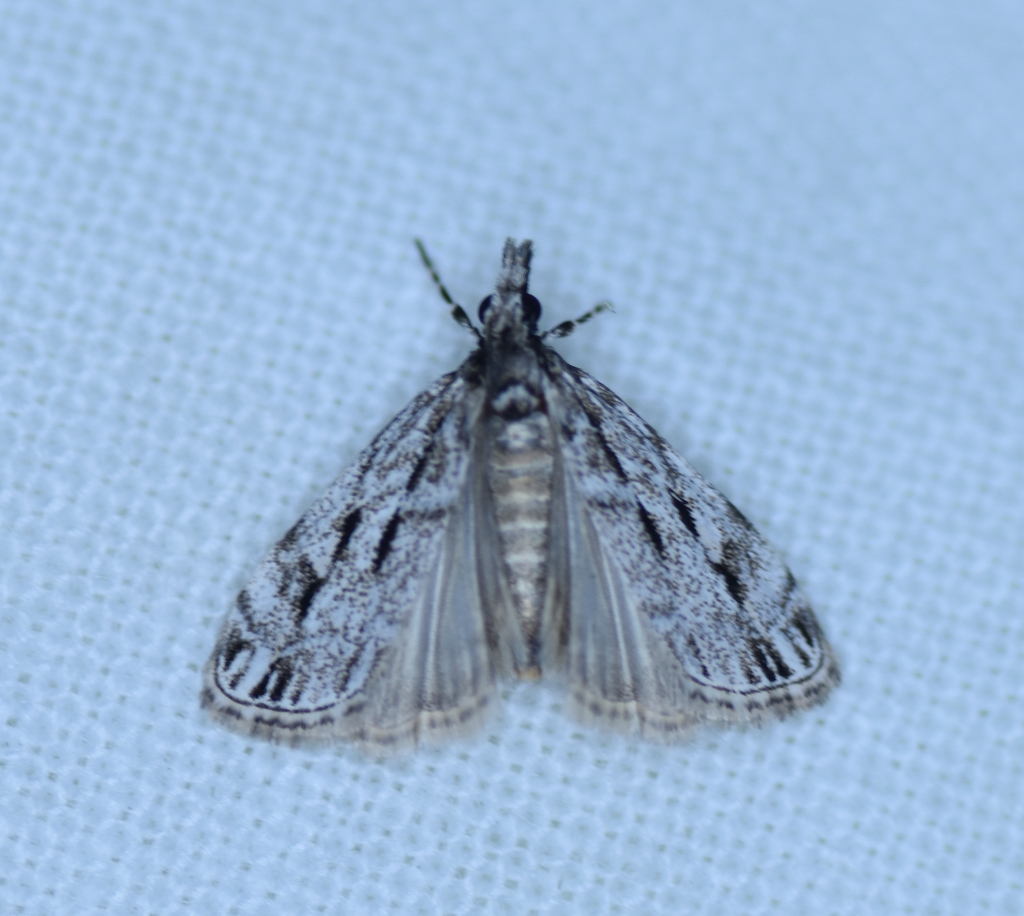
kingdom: Animalia
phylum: Arthropoda
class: Insecta
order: Lepidoptera
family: Crambidae
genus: Eudonia
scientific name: Eudonia strigalis
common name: Striped eudonia moth
